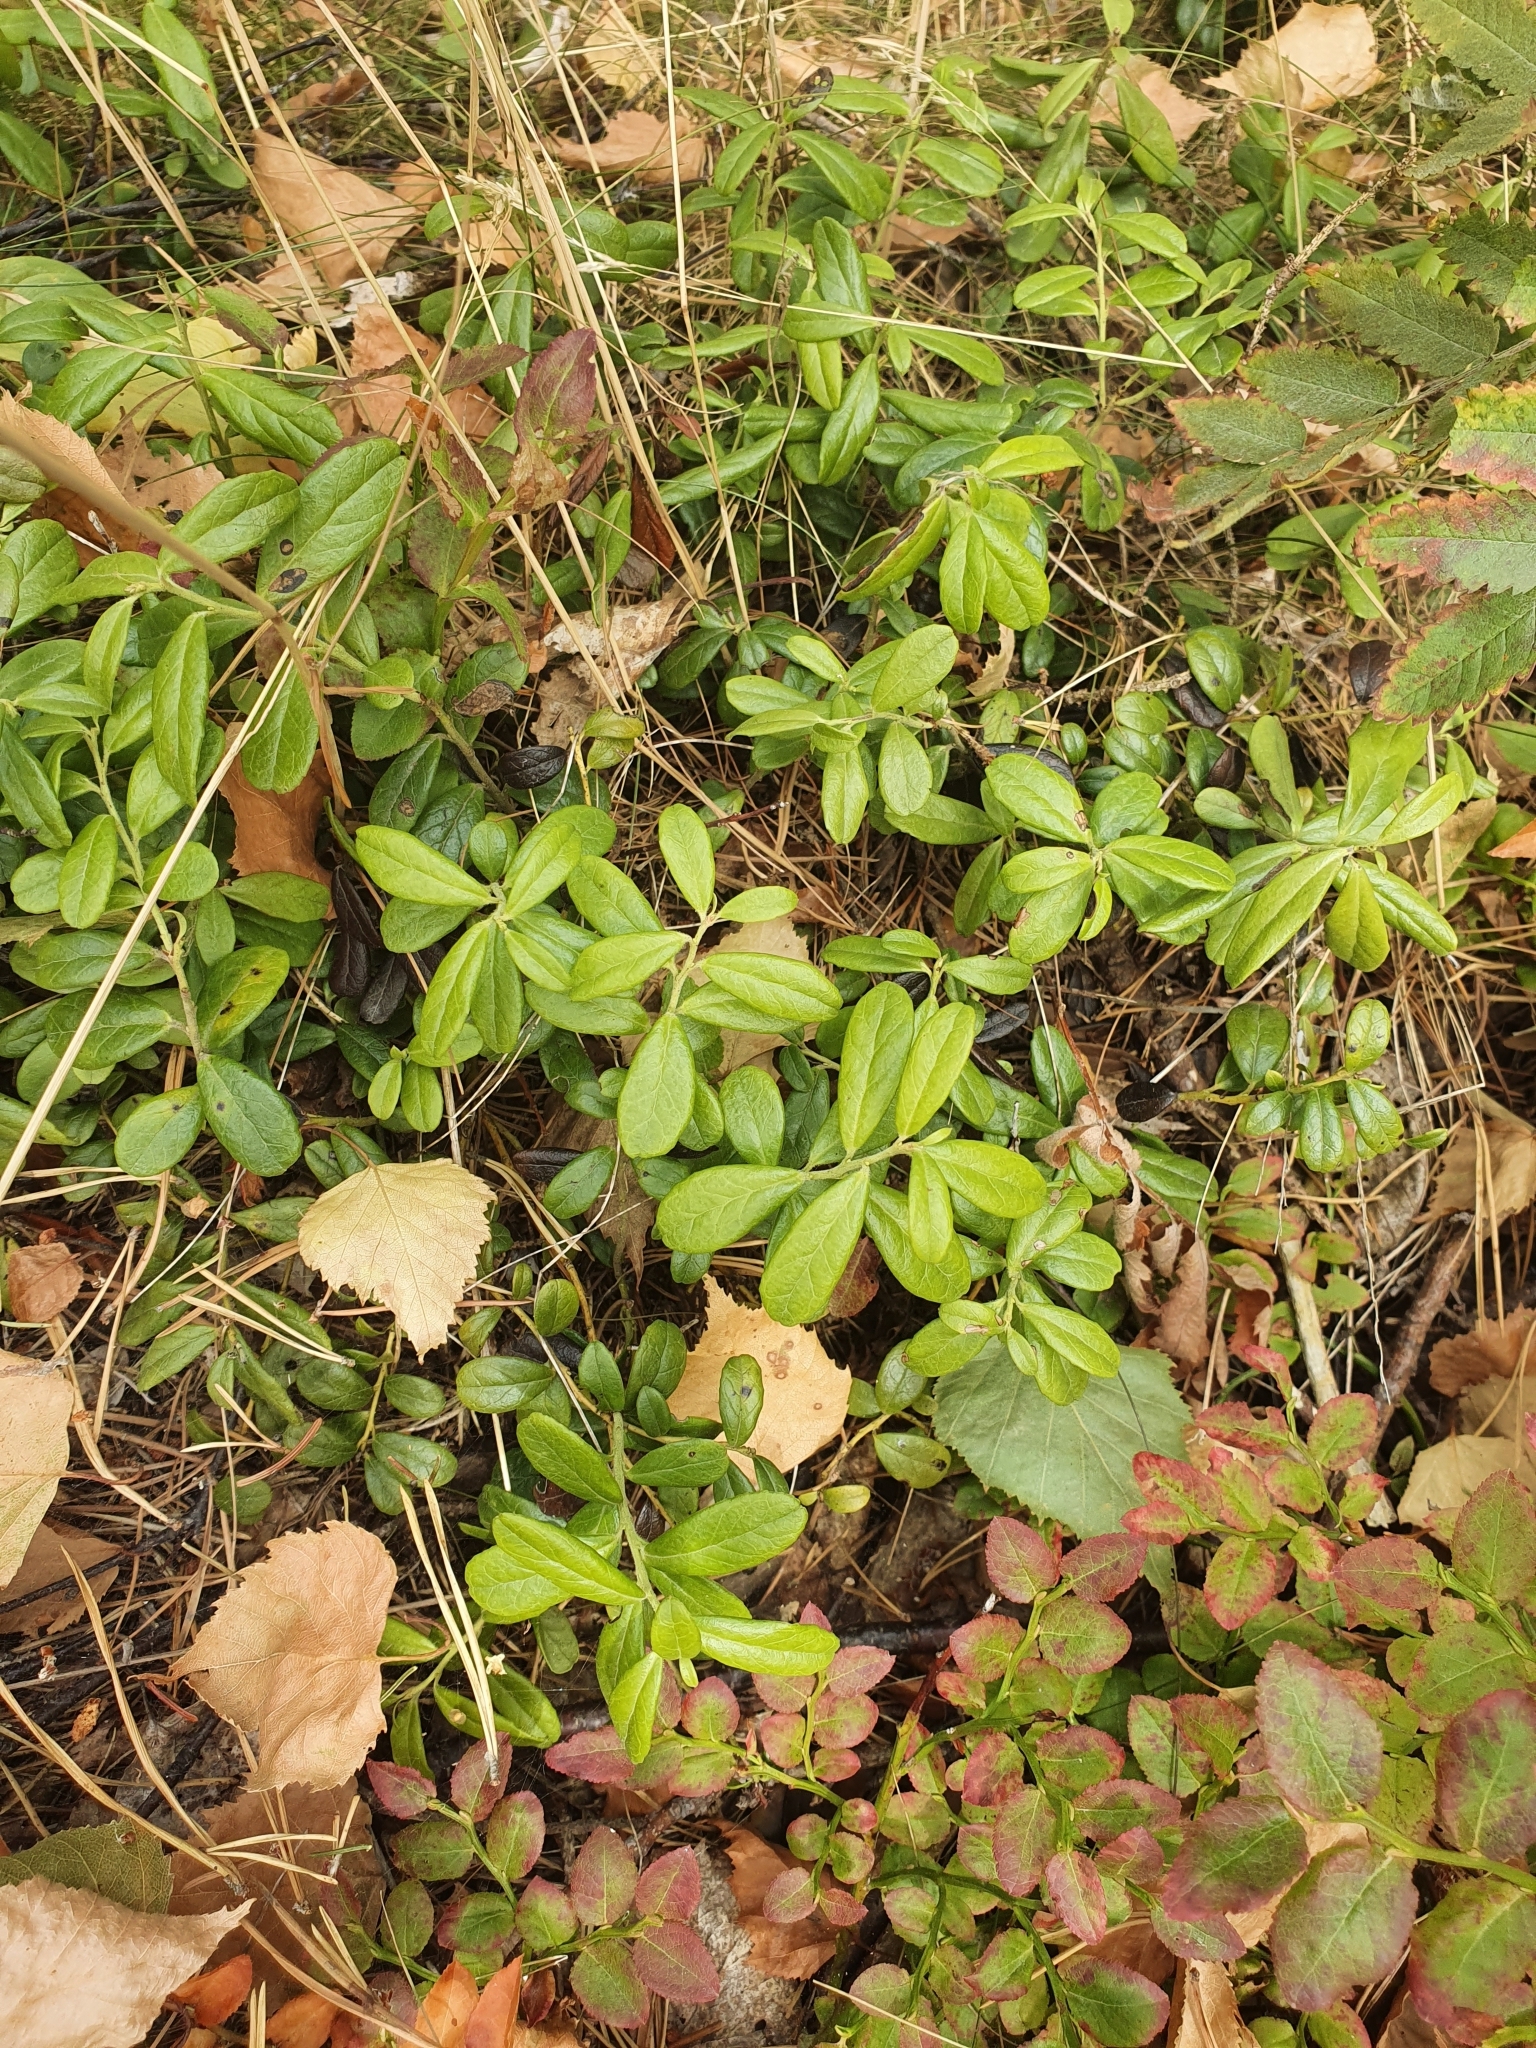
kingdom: Plantae
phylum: Tracheophyta
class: Magnoliopsida
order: Ericales
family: Ericaceae
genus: Vaccinium
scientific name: Vaccinium vitis-idaea
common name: Cowberry
